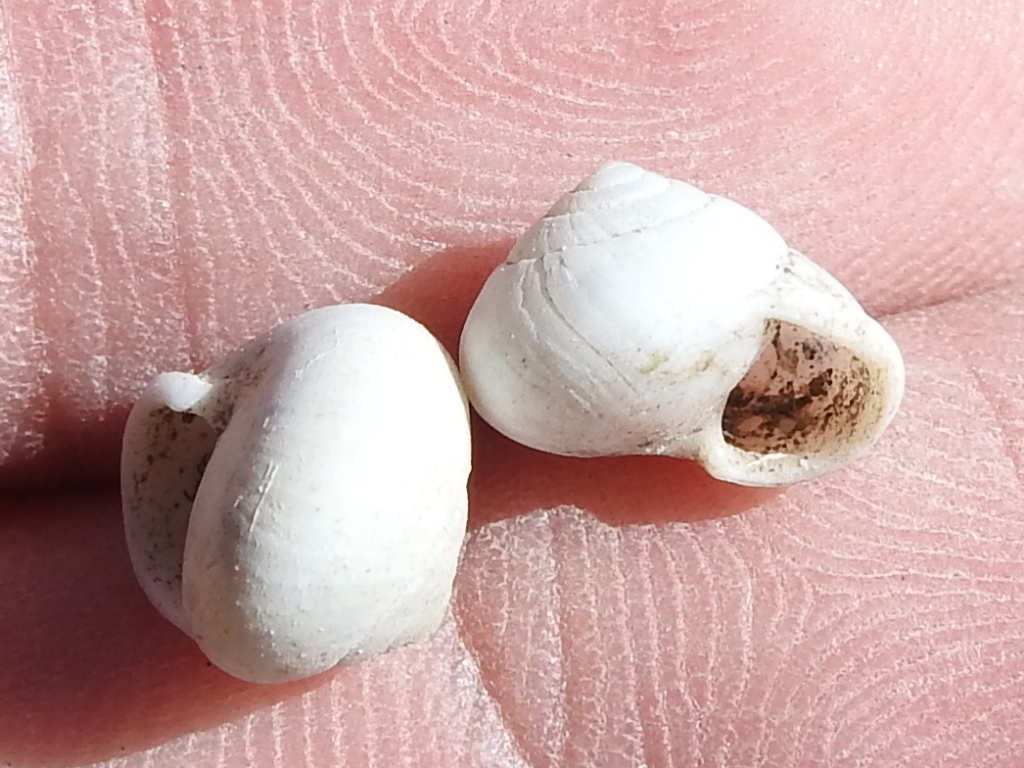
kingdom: Animalia
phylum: Mollusca
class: Gastropoda
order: Cycloneritida
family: Helicinidae
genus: Helicina
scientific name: Helicina orbiculata
